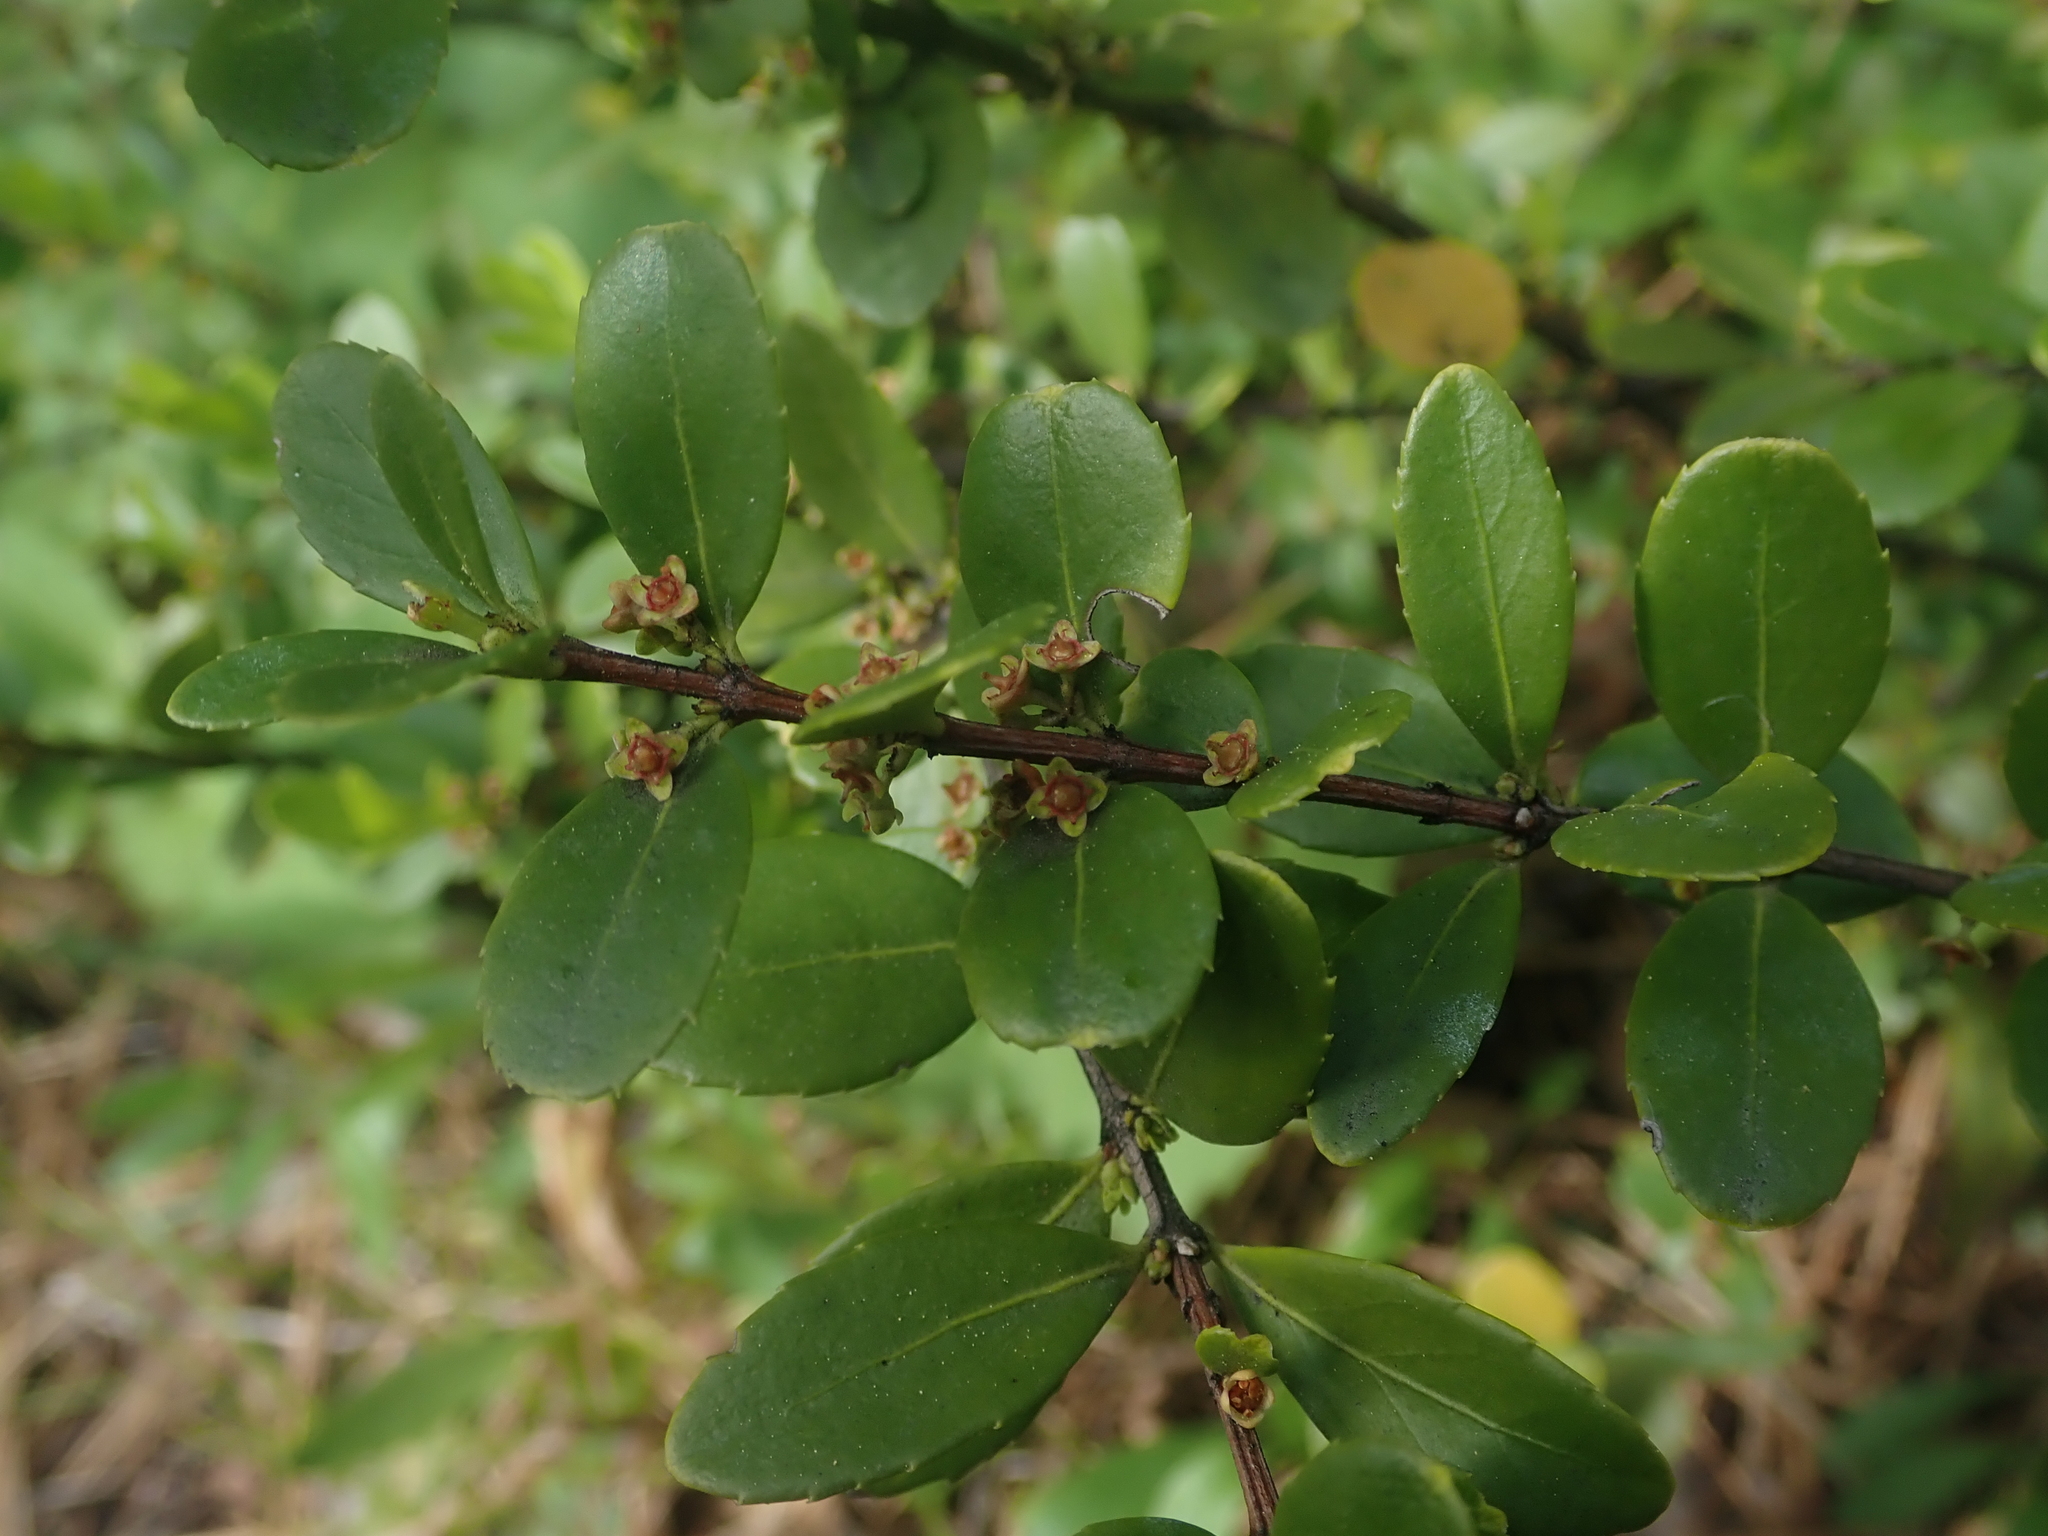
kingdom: Plantae
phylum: Tracheophyta
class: Magnoliopsida
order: Celastrales
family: Celastraceae
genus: Paxistima
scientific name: Paxistima myrsinites
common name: Mountain-lover
